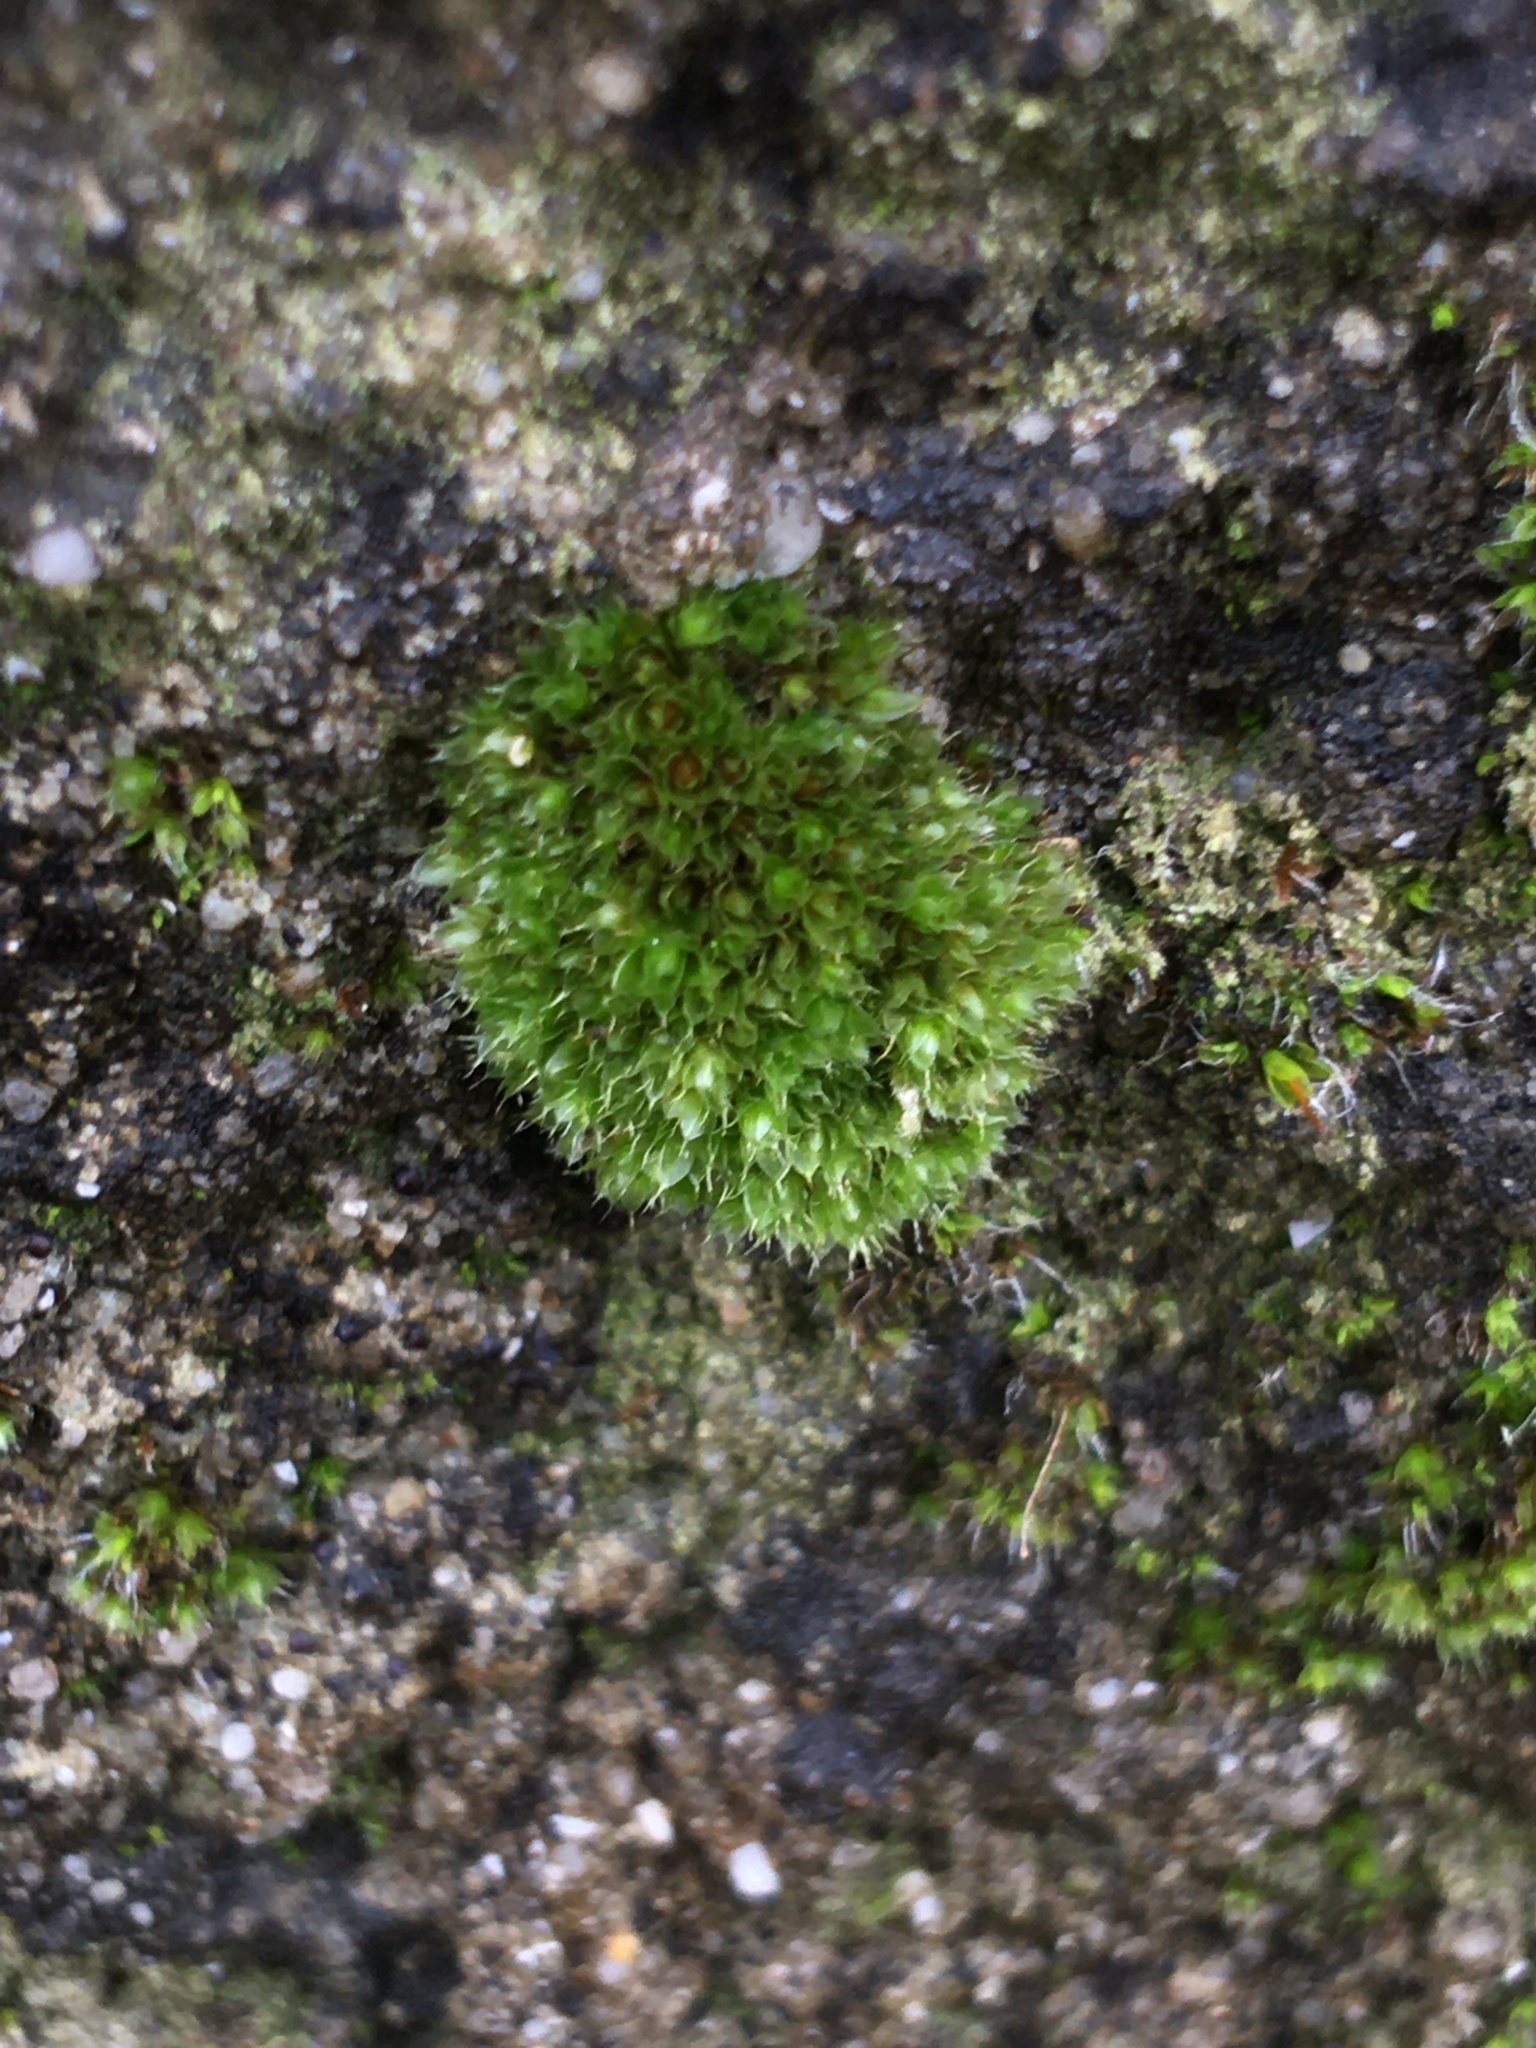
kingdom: Plantae
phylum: Bryophyta
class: Bryopsida
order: Bryales
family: Bryaceae
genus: Rosulabryum
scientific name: Rosulabryum torquescens
